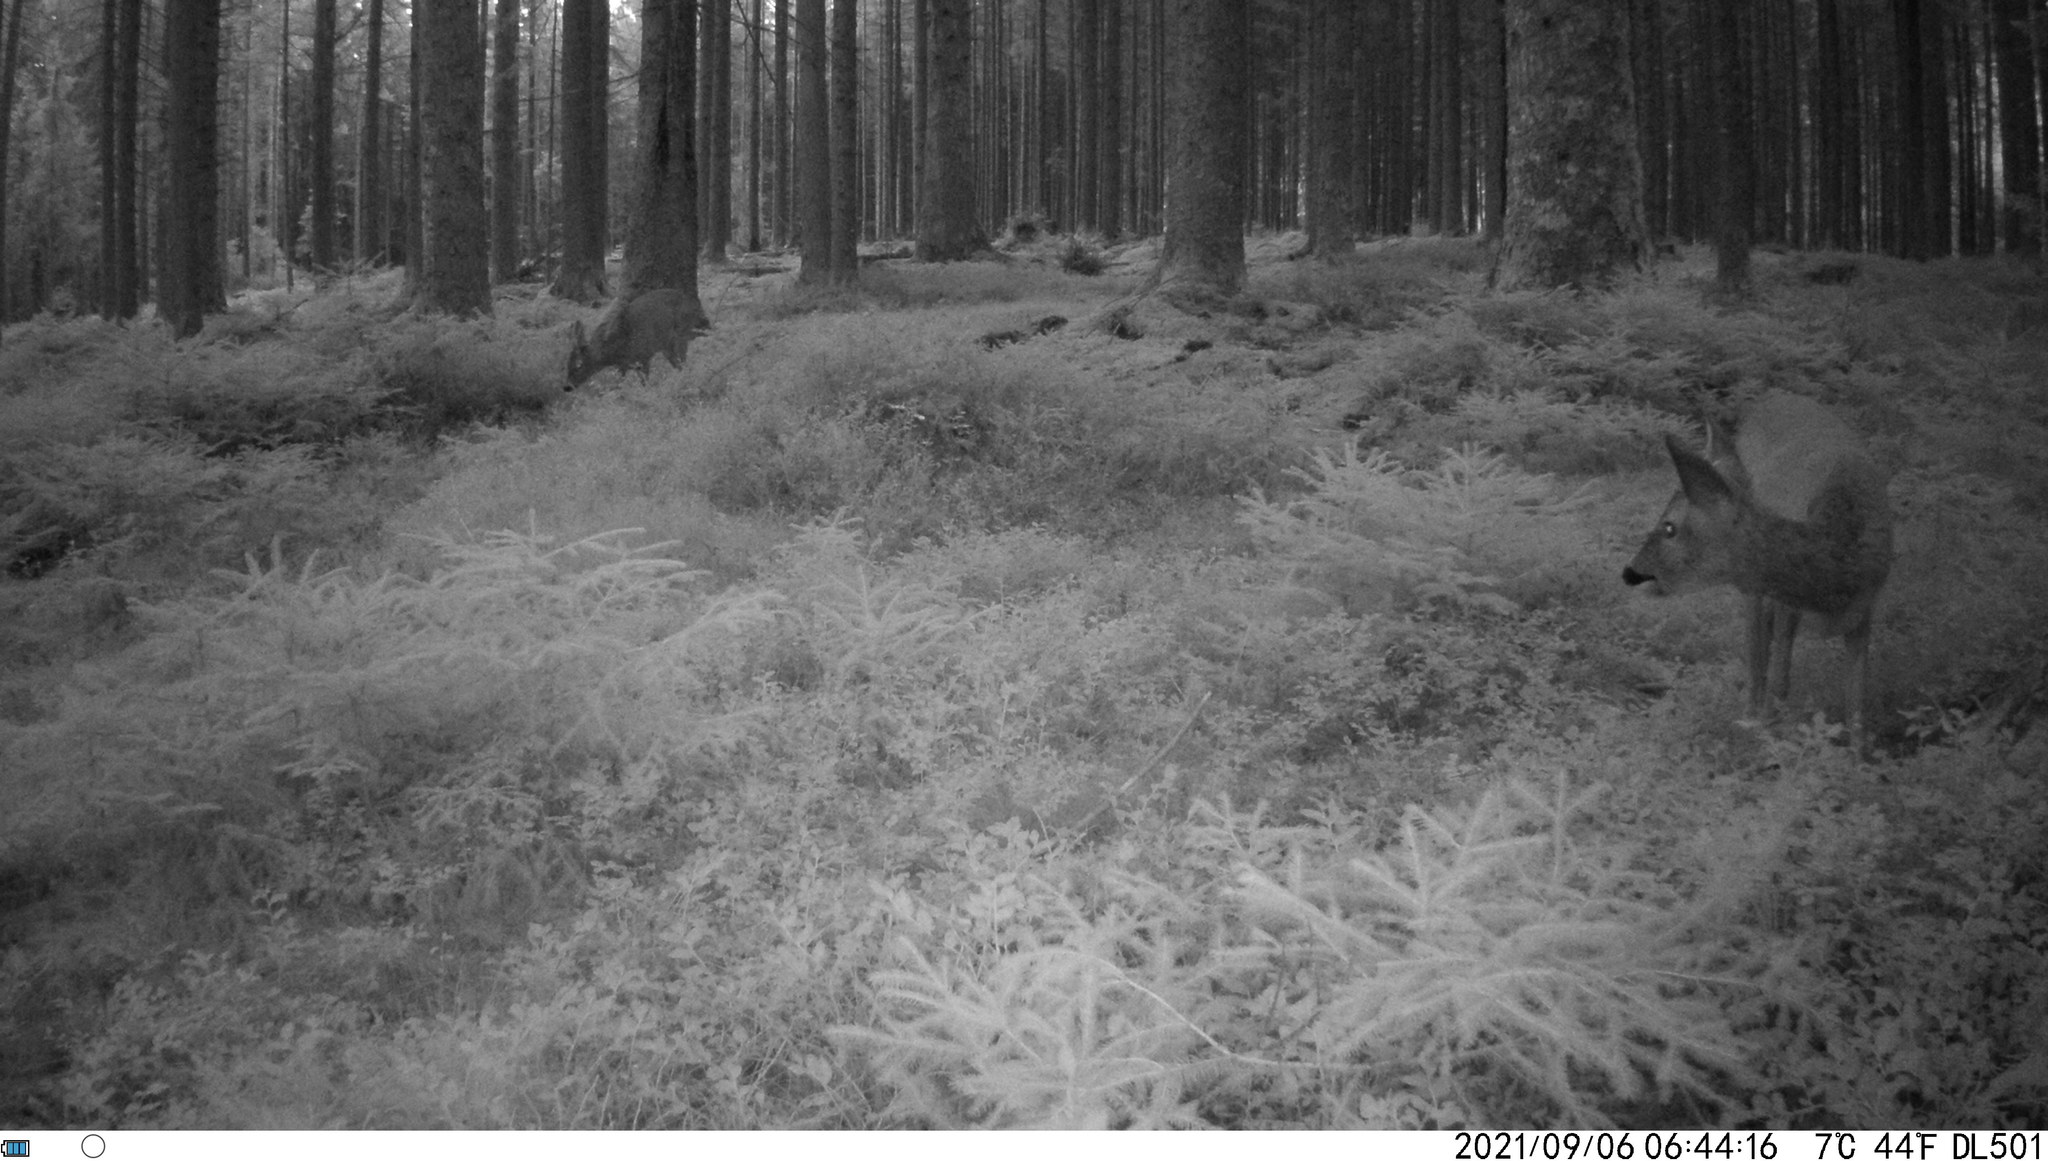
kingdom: Animalia
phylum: Chordata
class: Mammalia
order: Artiodactyla
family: Cervidae
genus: Capreolus
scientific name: Capreolus capreolus
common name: Western roe deer
